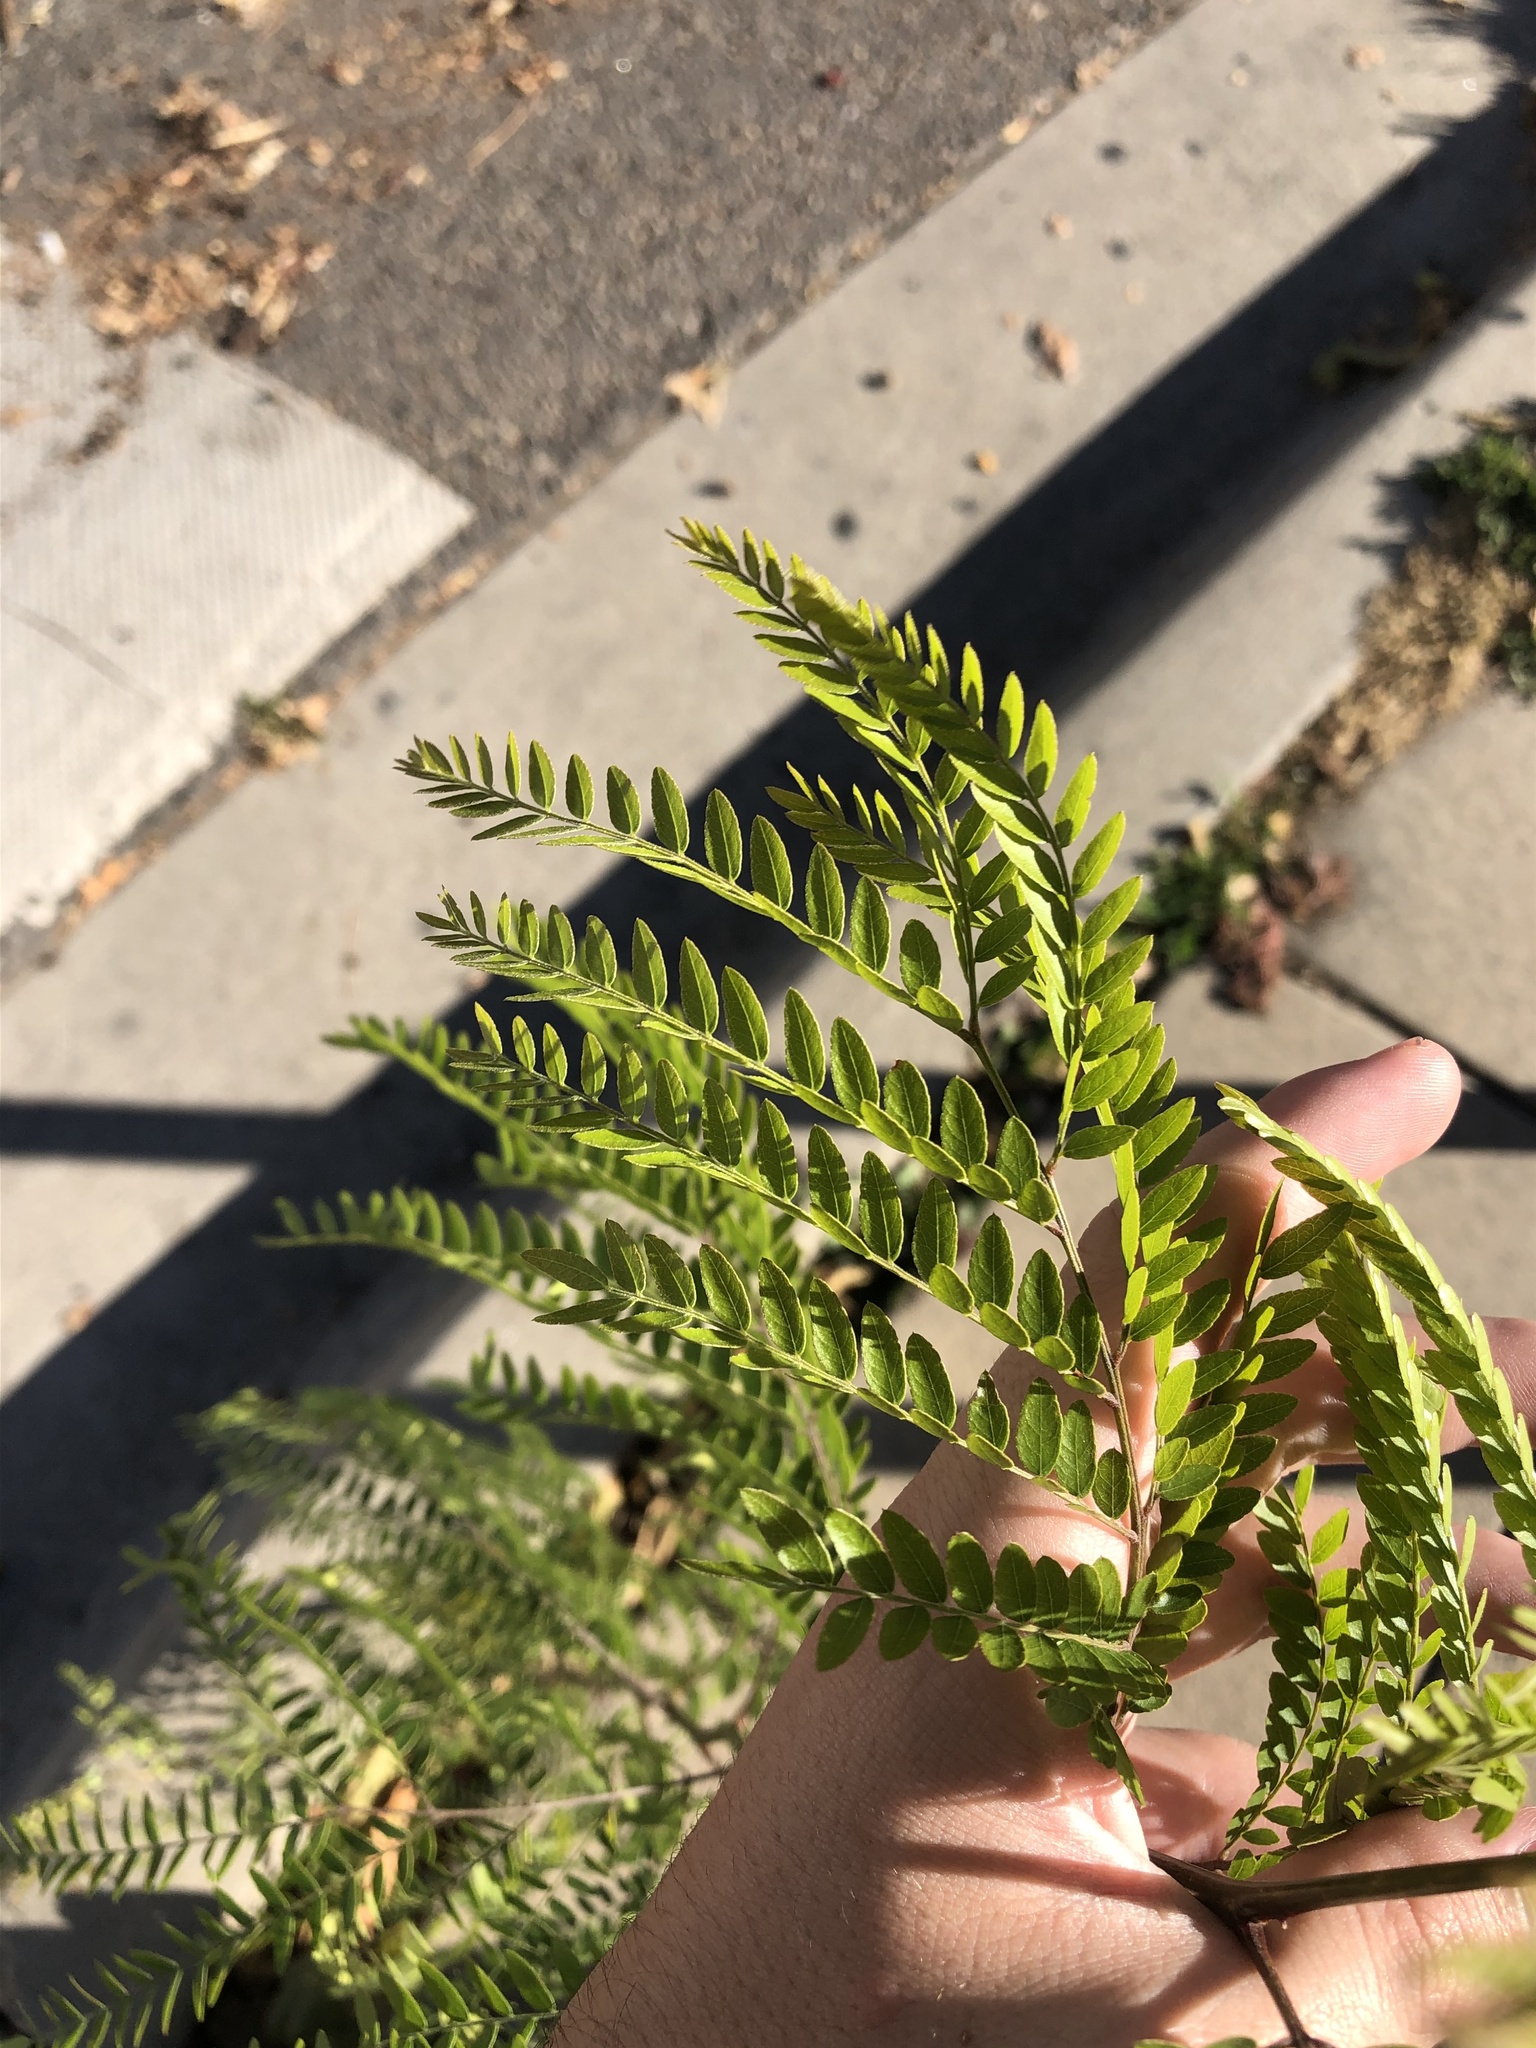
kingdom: Plantae
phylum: Tracheophyta
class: Magnoliopsida
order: Fabales
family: Fabaceae
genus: Gleditsia
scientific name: Gleditsia triacanthos
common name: Common honeylocust
